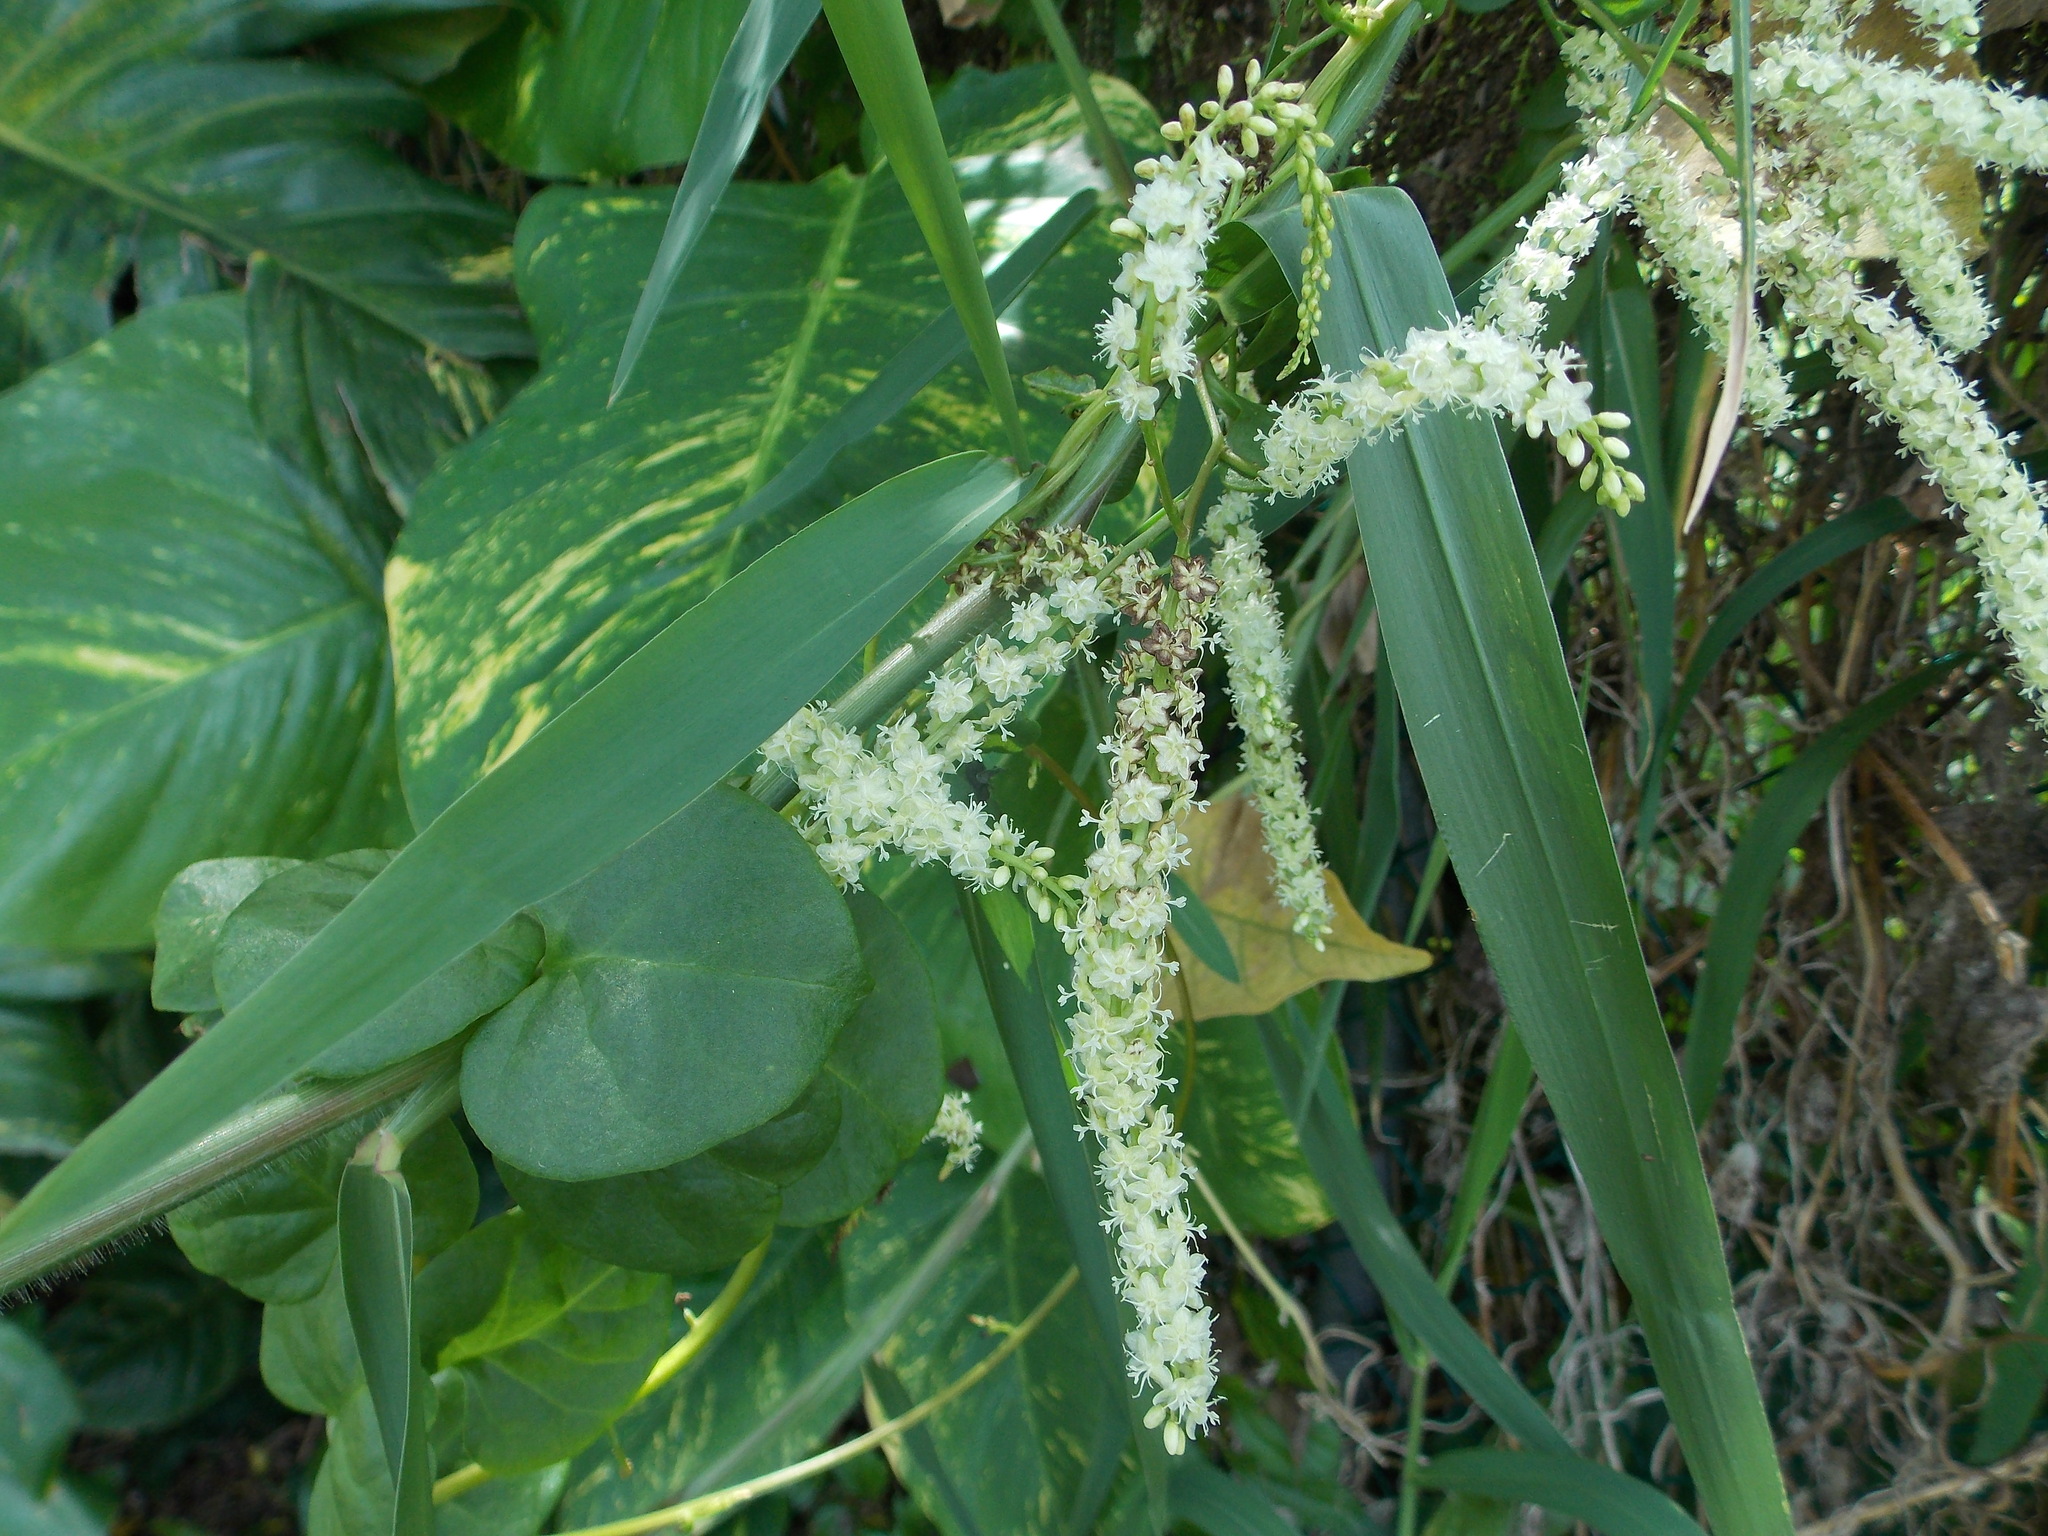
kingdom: Plantae
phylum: Tracheophyta
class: Magnoliopsida
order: Caryophyllales
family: Basellaceae
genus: Anredera
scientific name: Anredera baselloides
